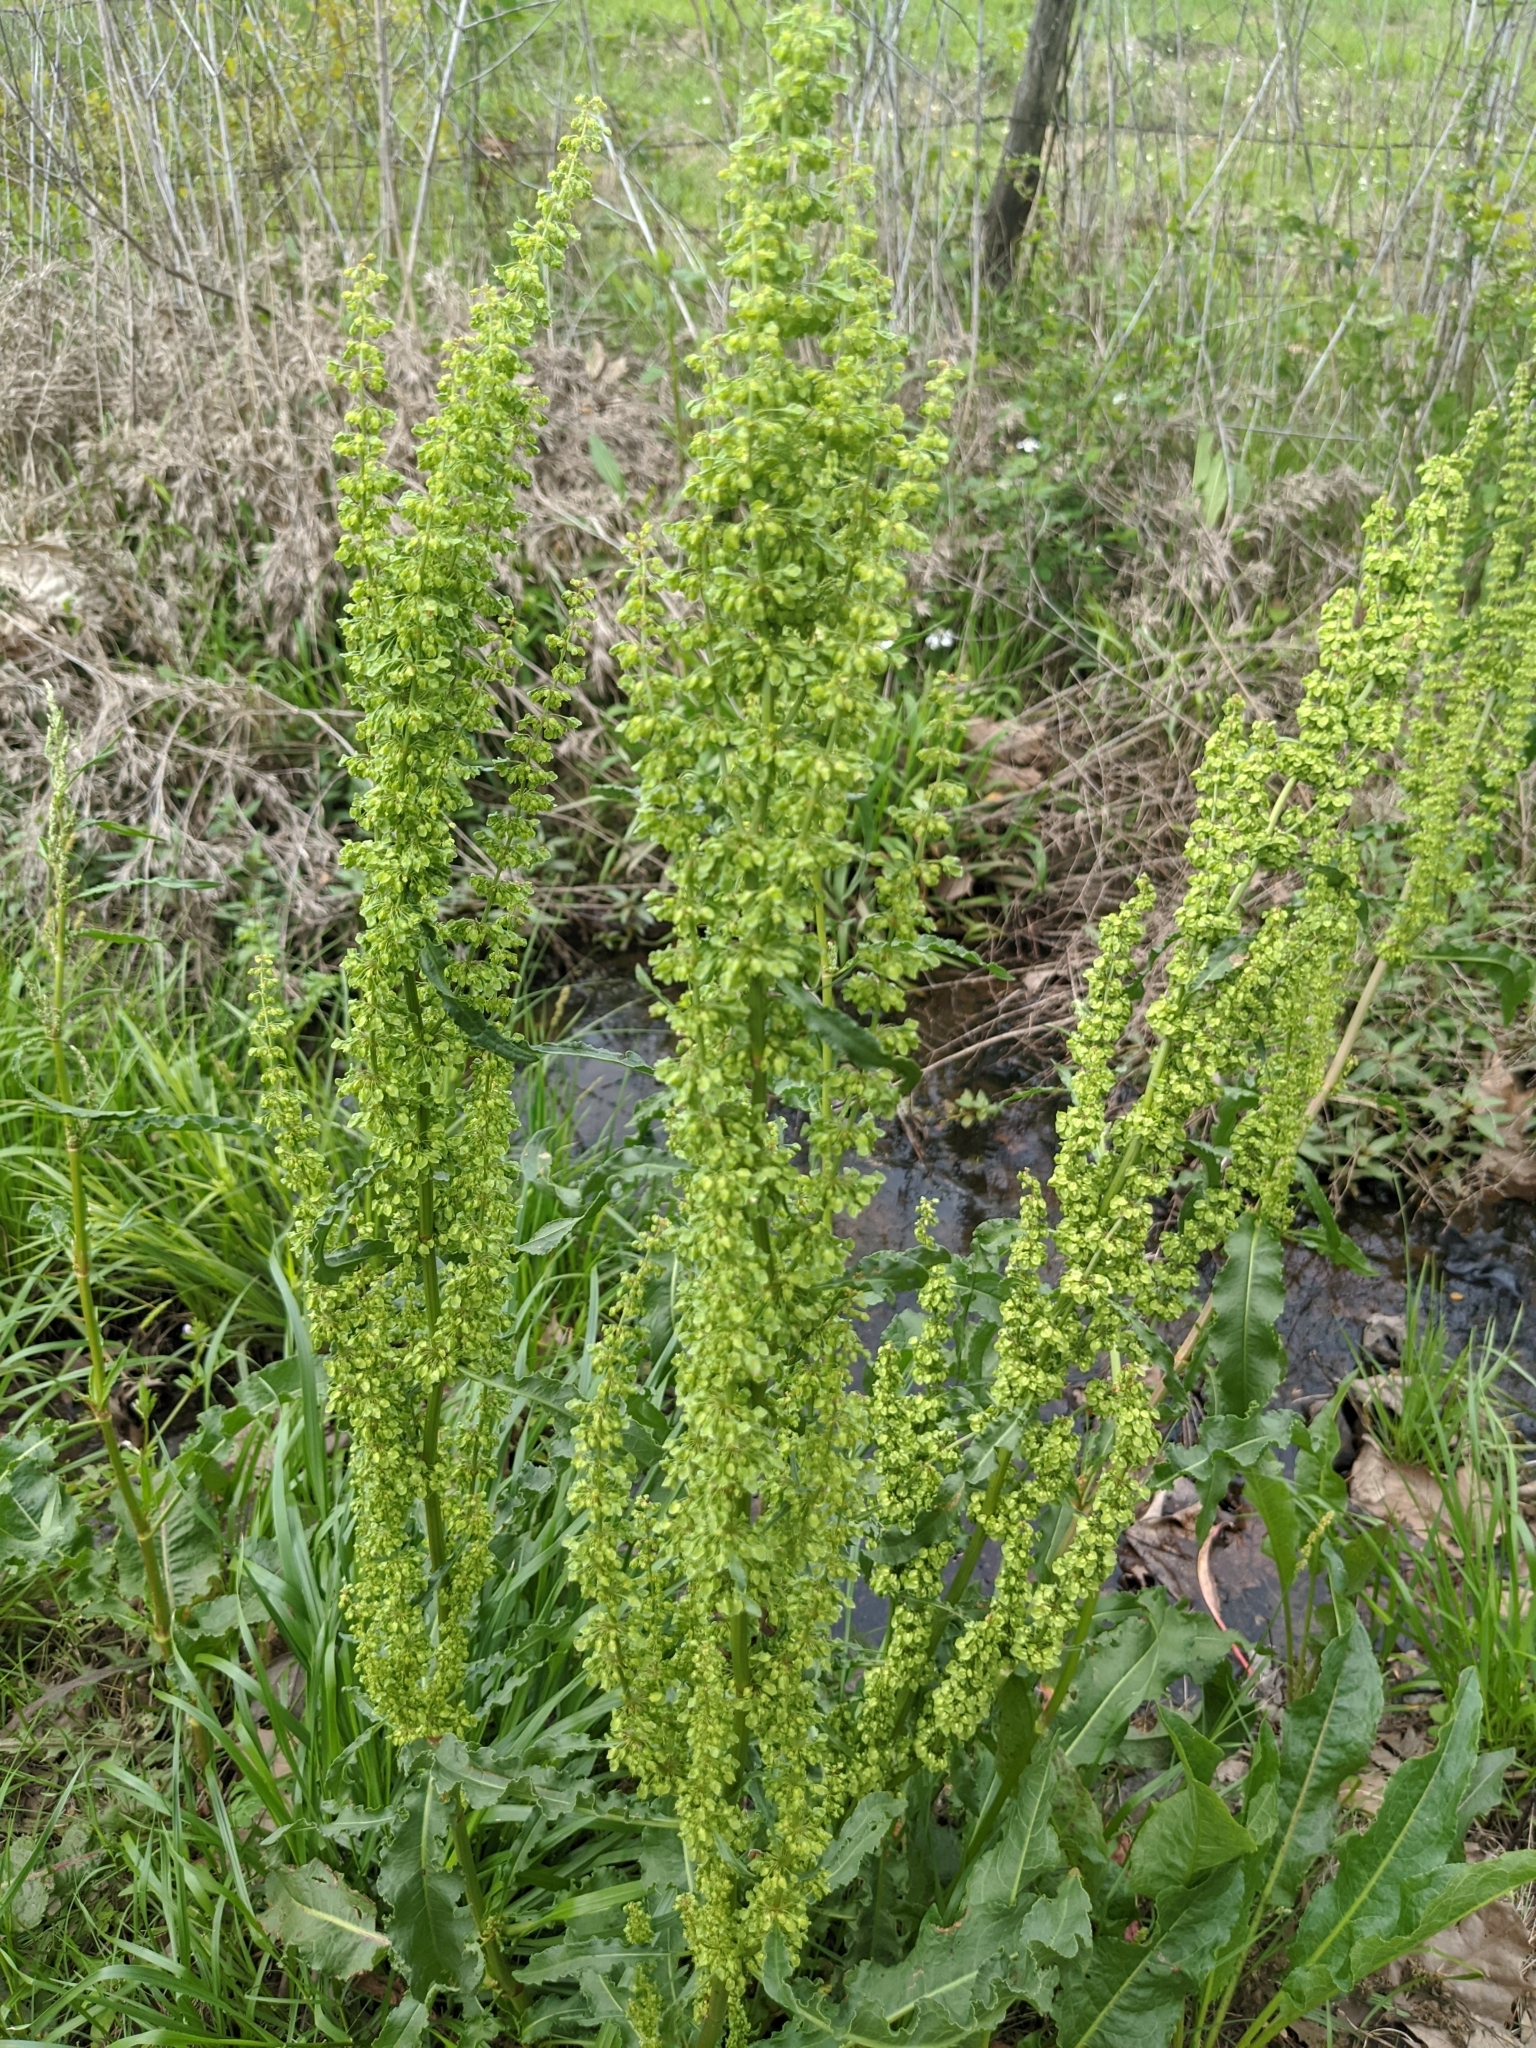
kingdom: Plantae
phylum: Tracheophyta
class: Magnoliopsida
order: Caryophyllales
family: Polygonaceae
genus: Rumex
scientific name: Rumex crispus
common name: Curled dock
